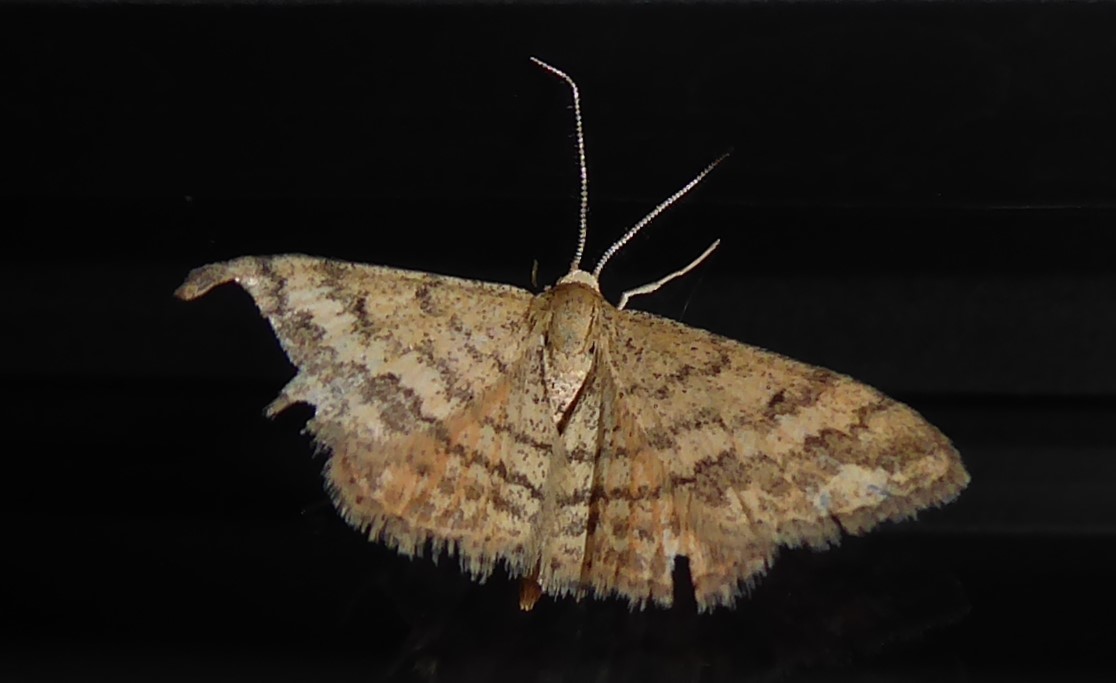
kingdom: Animalia
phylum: Arthropoda
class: Insecta
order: Lepidoptera
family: Geometridae
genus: Scopula
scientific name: Scopula rubraria
